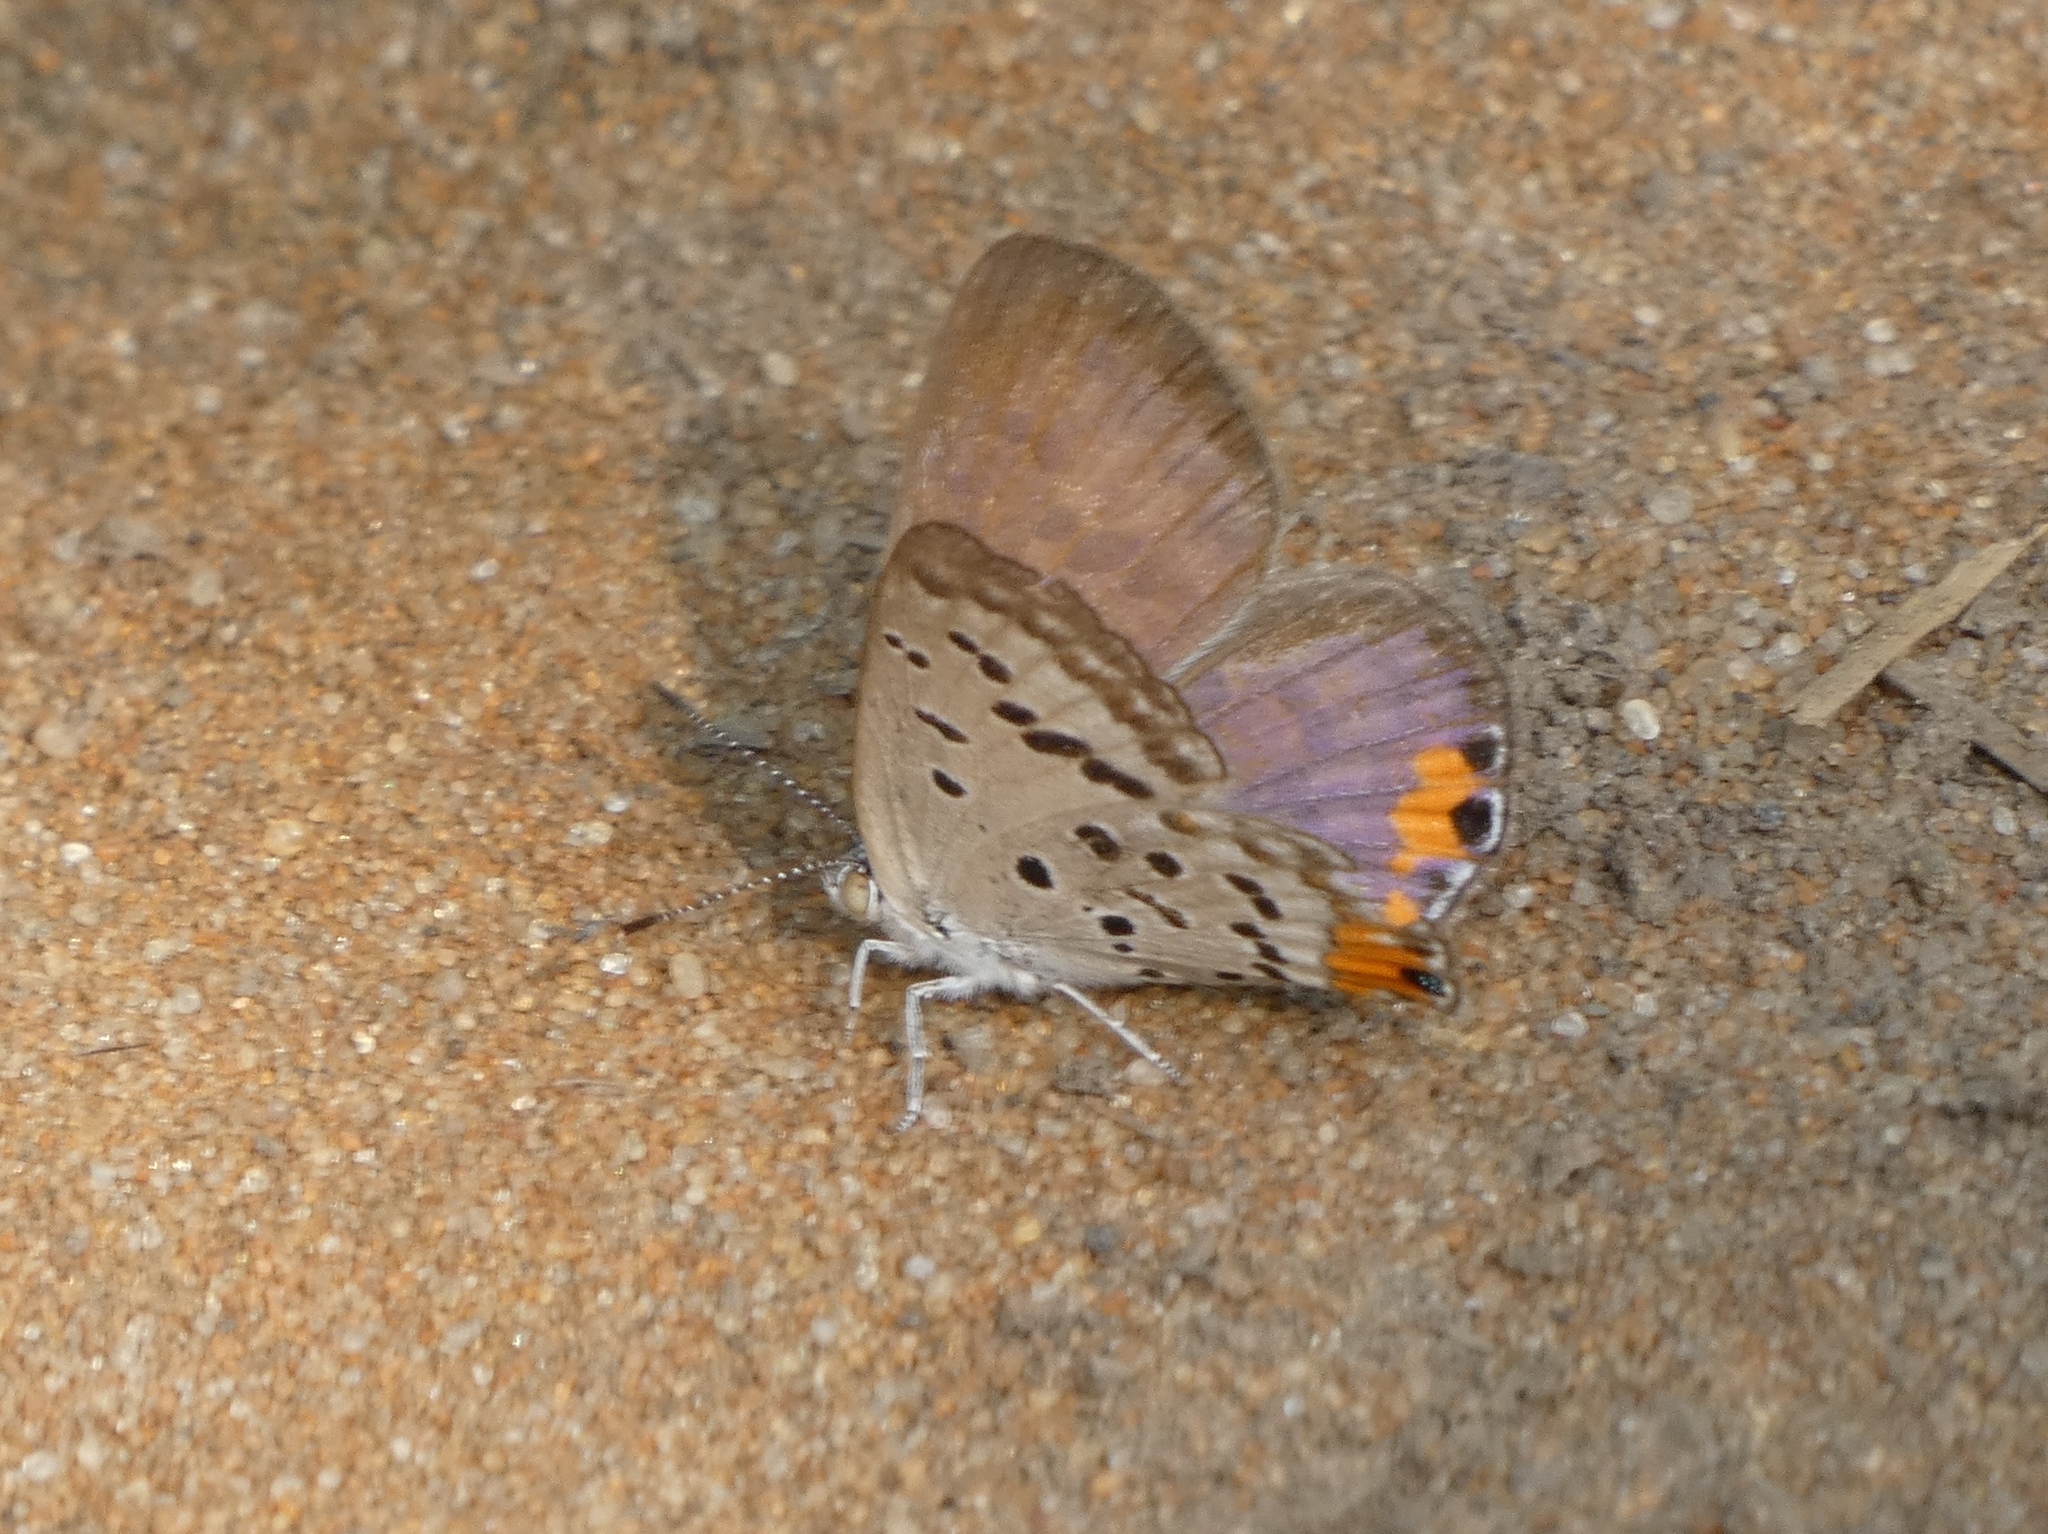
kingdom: Animalia
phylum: Arthropoda
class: Insecta
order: Lepidoptera
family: Lycaenidae
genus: Cupido
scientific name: Cupido cissus
